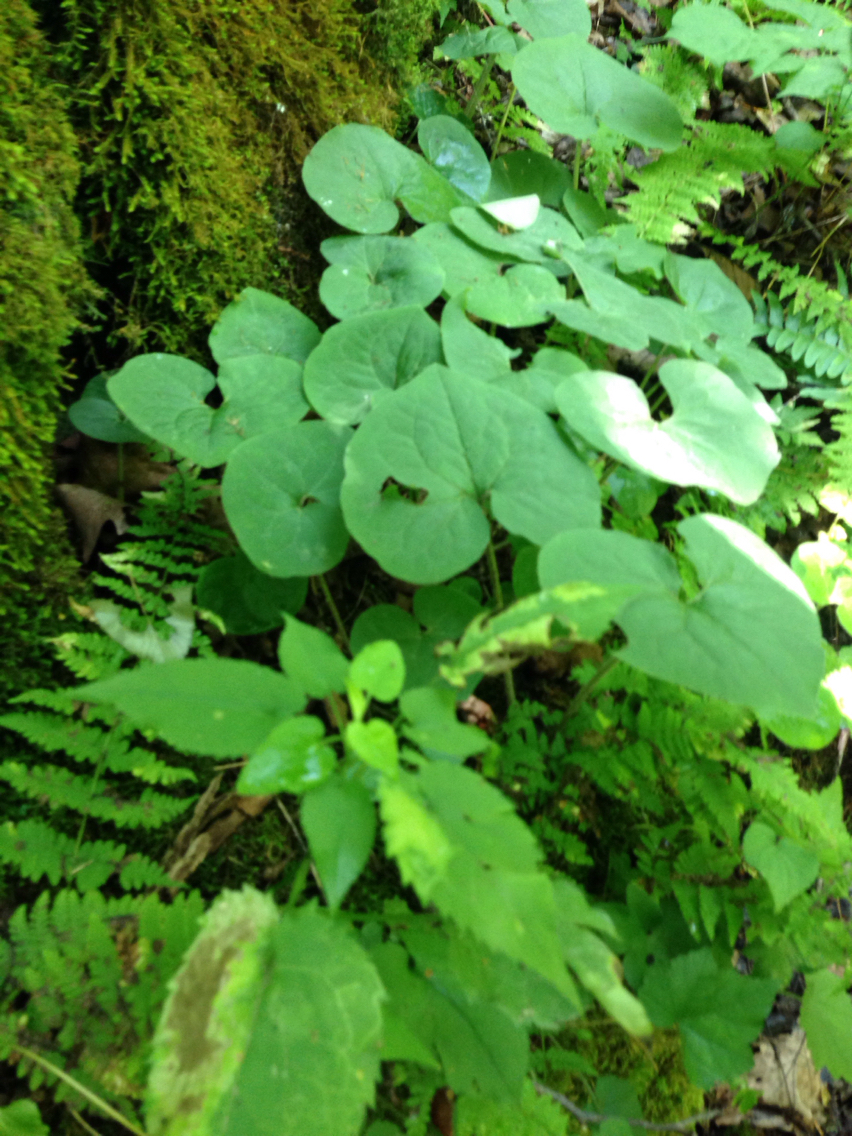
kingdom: Plantae
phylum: Tracheophyta
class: Magnoliopsida
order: Piperales
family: Aristolochiaceae
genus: Asarum
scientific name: Asarum canadense
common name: Wild ginger
